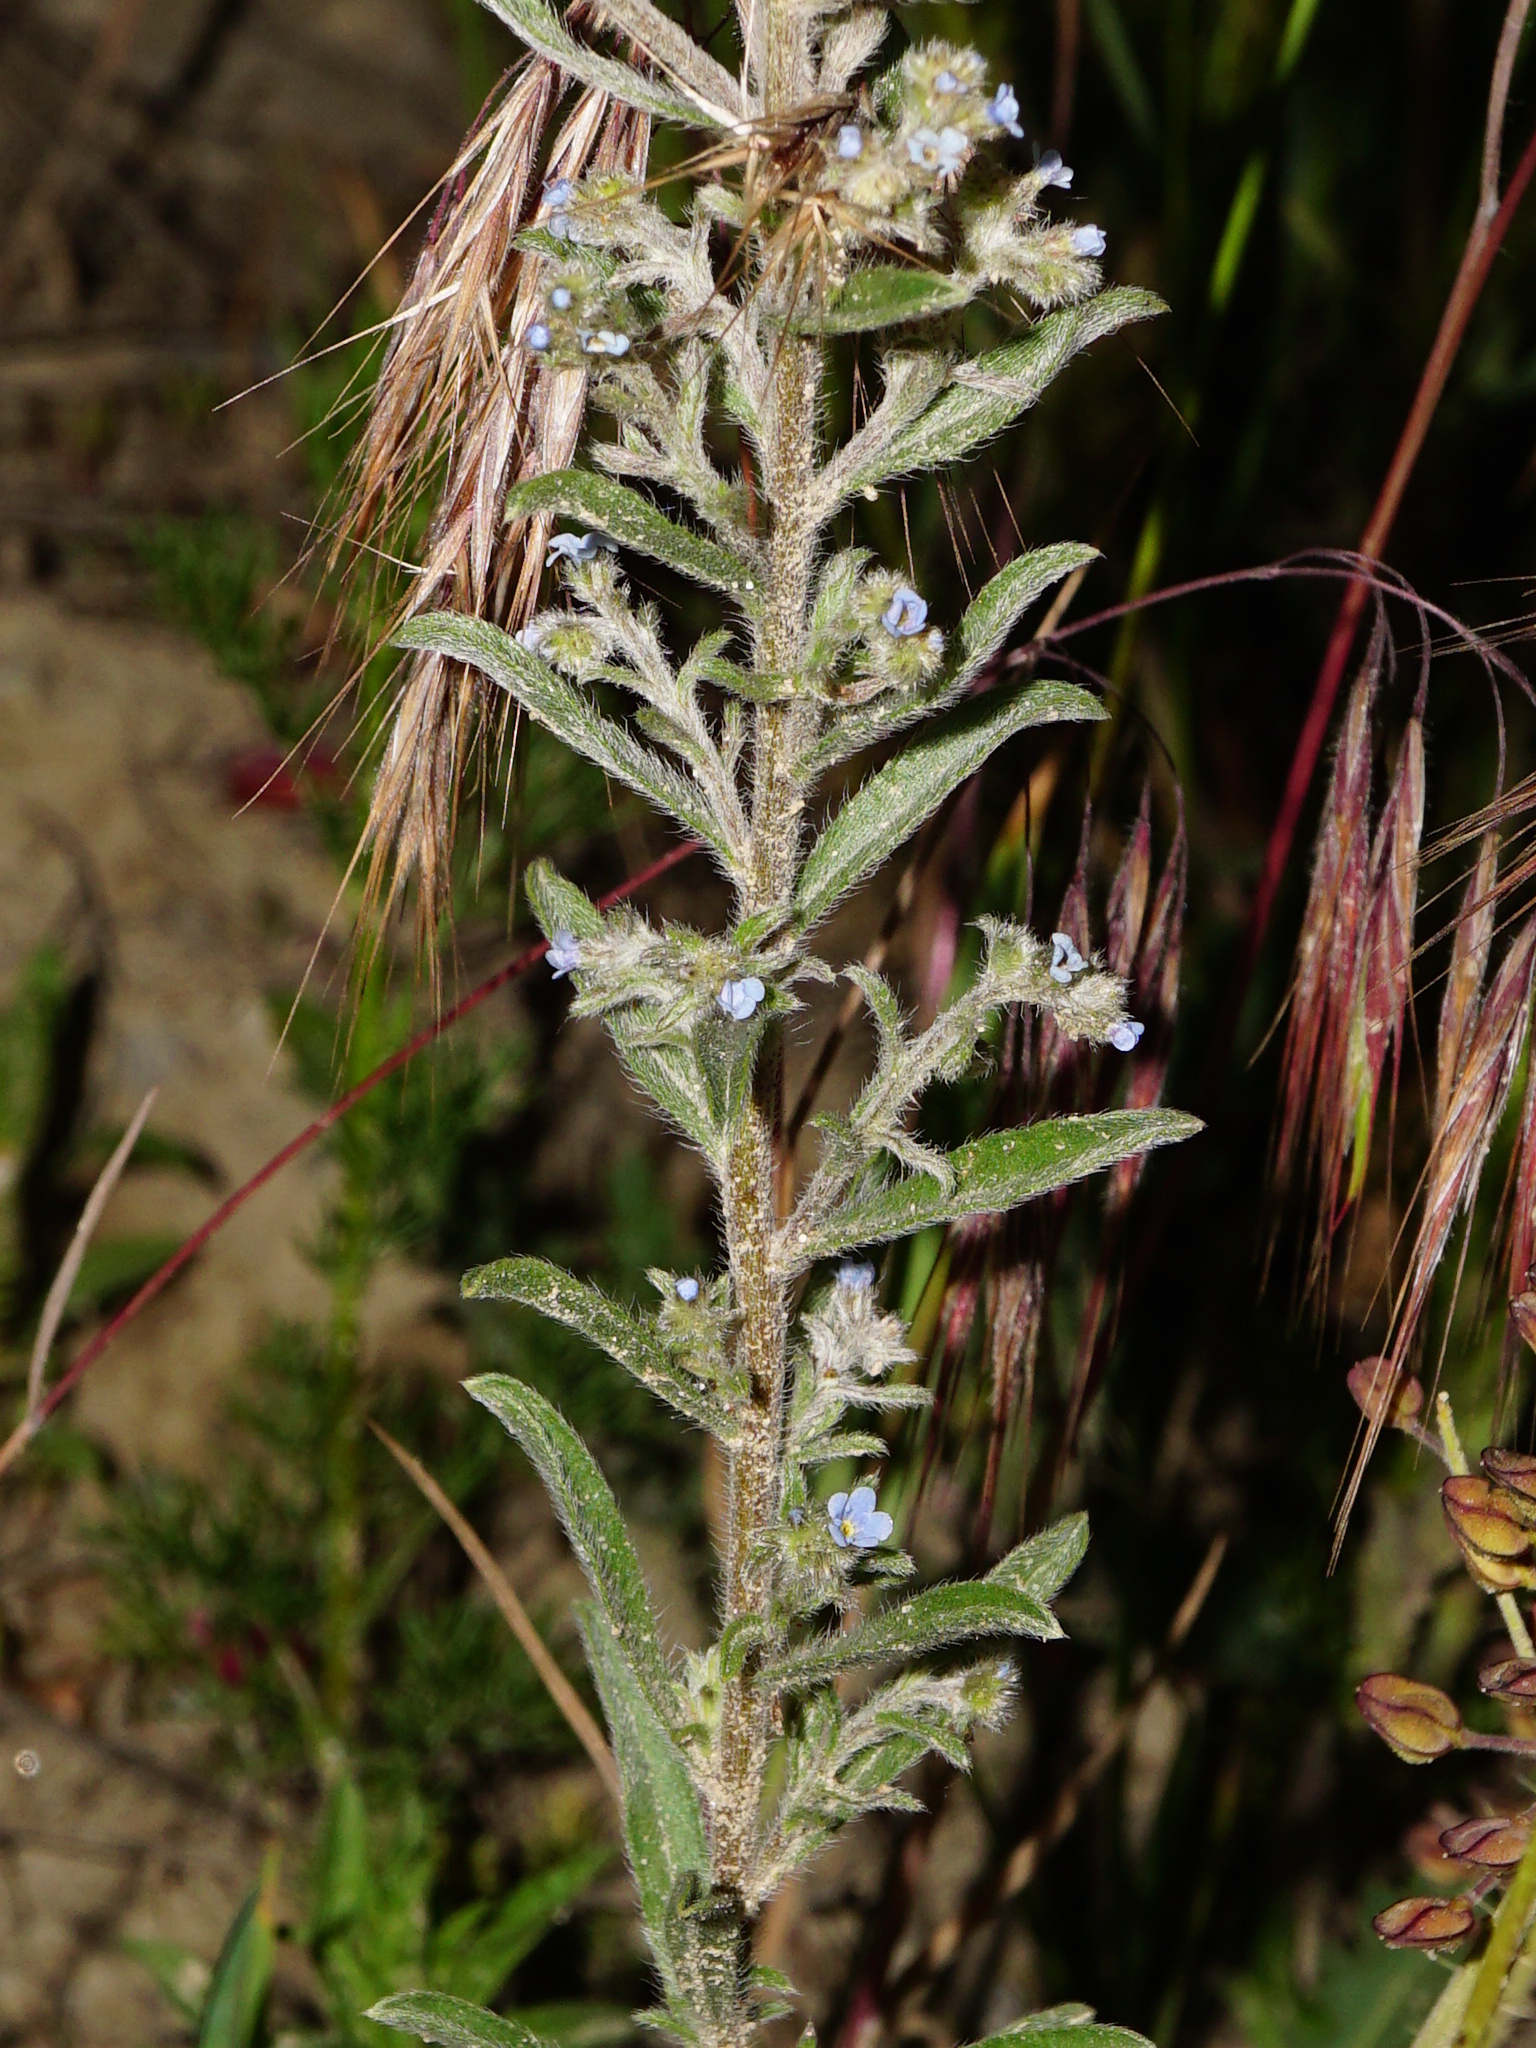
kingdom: Plantae
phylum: Tracheophyta
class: Magnoliopsida
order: Boraginales
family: Boraginaceae
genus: Lappula
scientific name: Lappula squarrosa
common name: European stickseed
